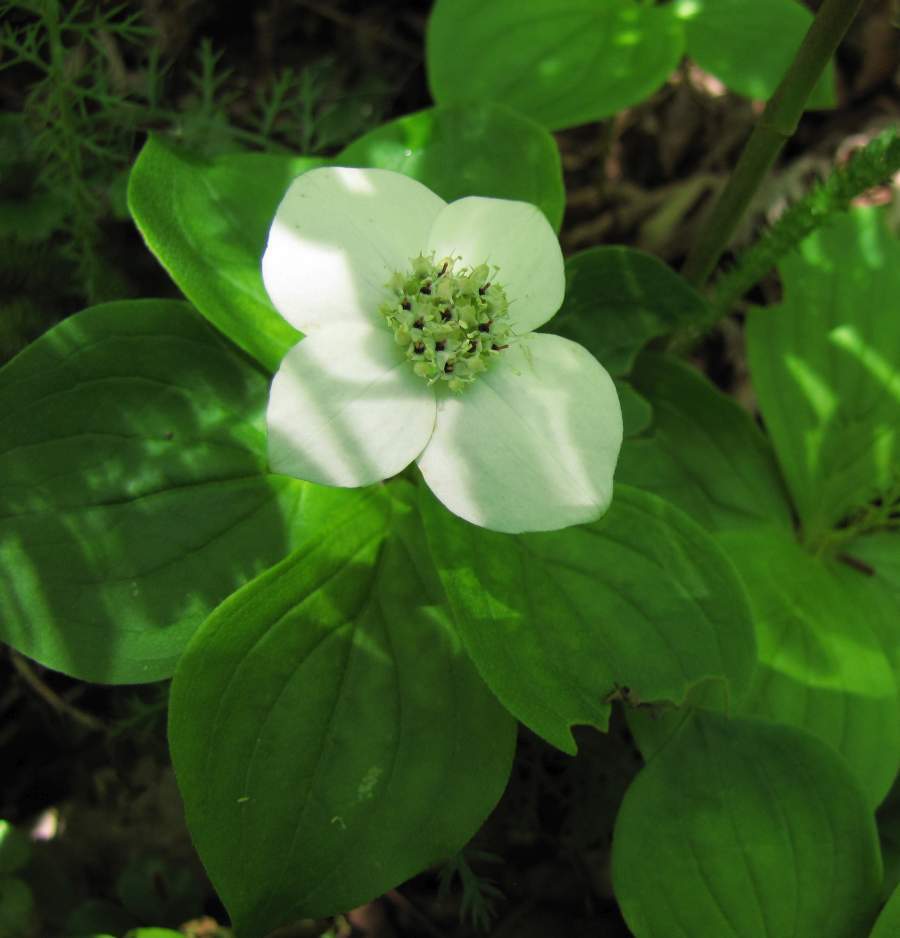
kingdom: Plantae
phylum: Tracheophyta
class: Magnoliopsida
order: Cornales
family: Cornaceae
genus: Cornus
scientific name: Cornus canadensis
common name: Creeping dogwood
